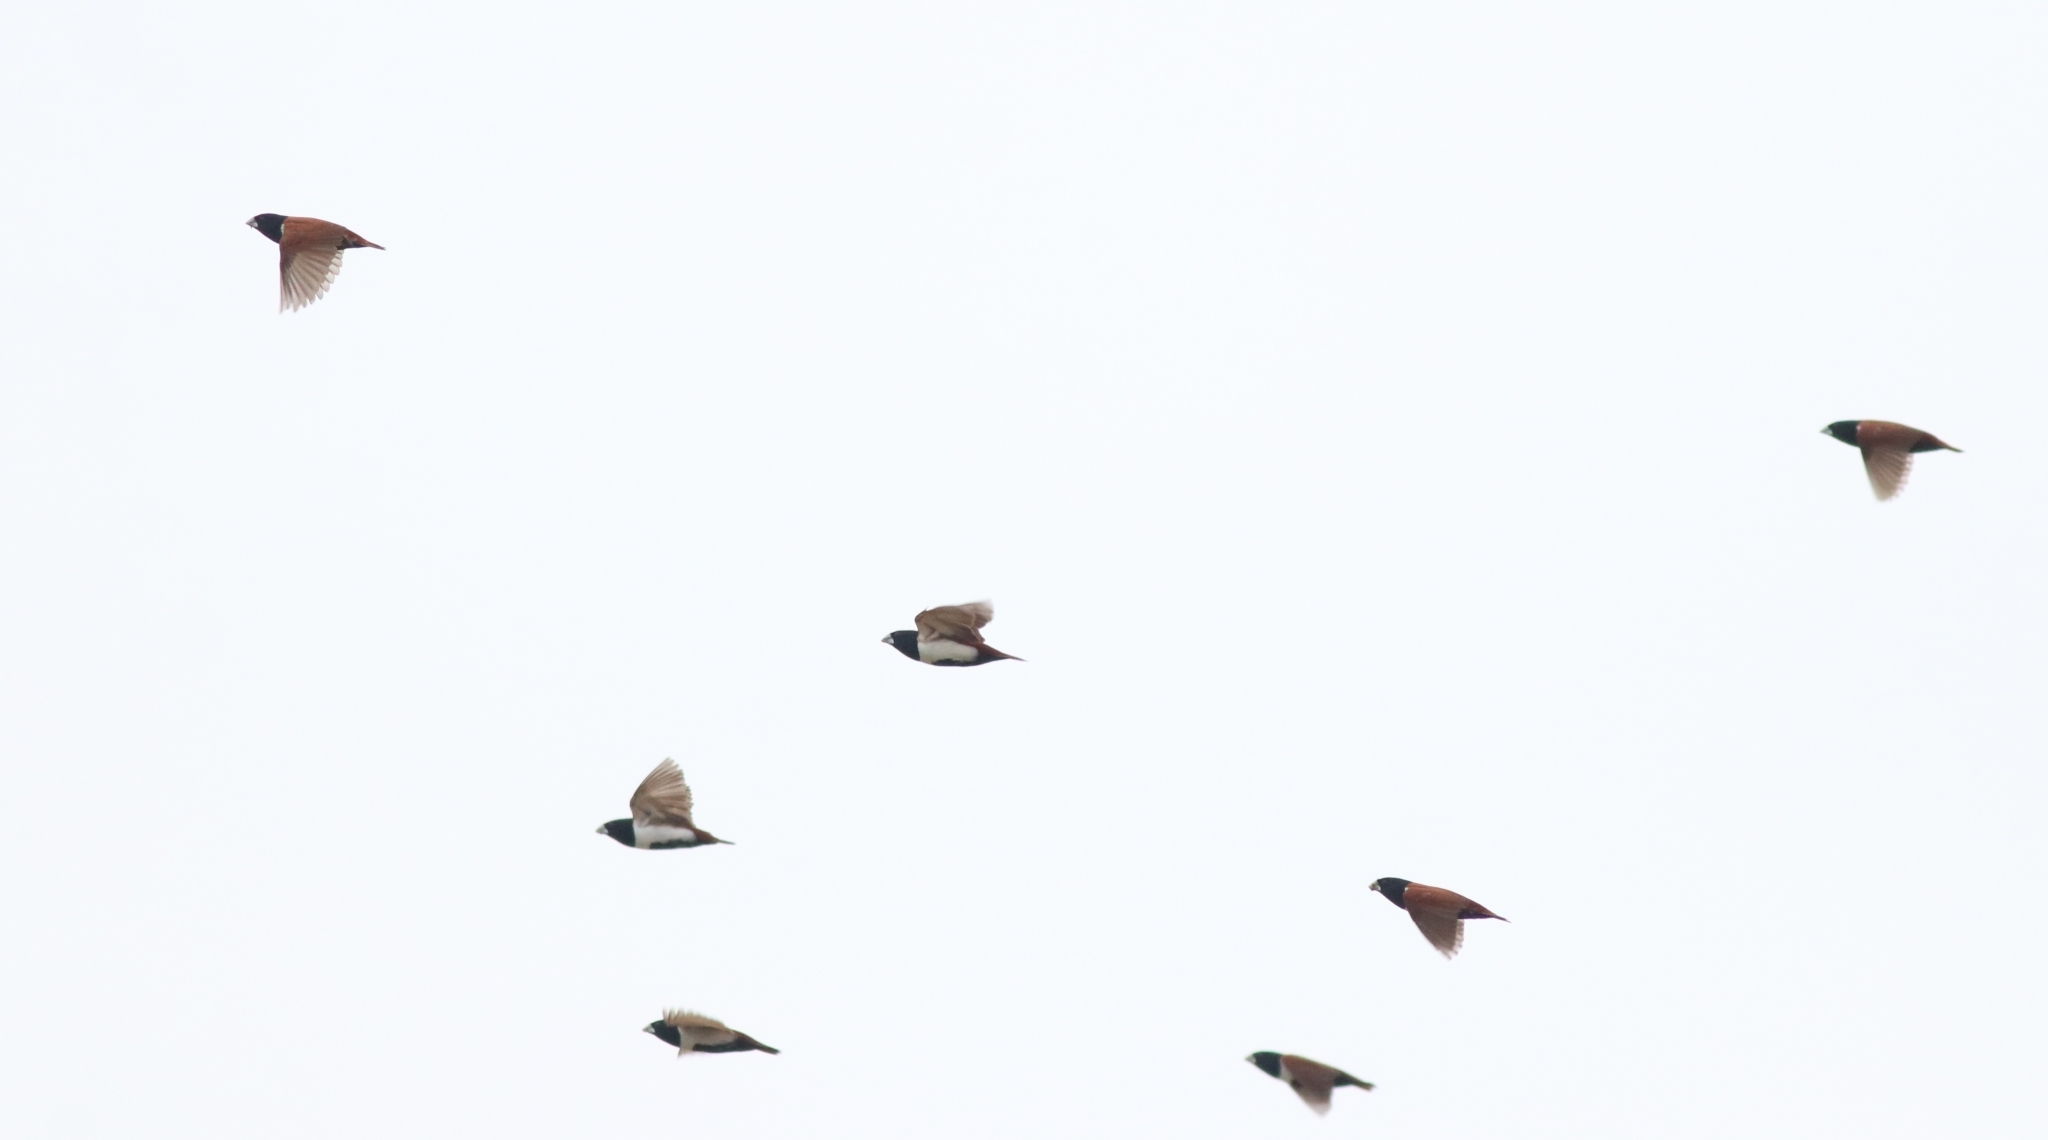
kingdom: Animalia
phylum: Chordata
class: Aves
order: Passeriformes
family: Estrildidae
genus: Lonchura
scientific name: Lonchura malacca
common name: Tricolored munia
